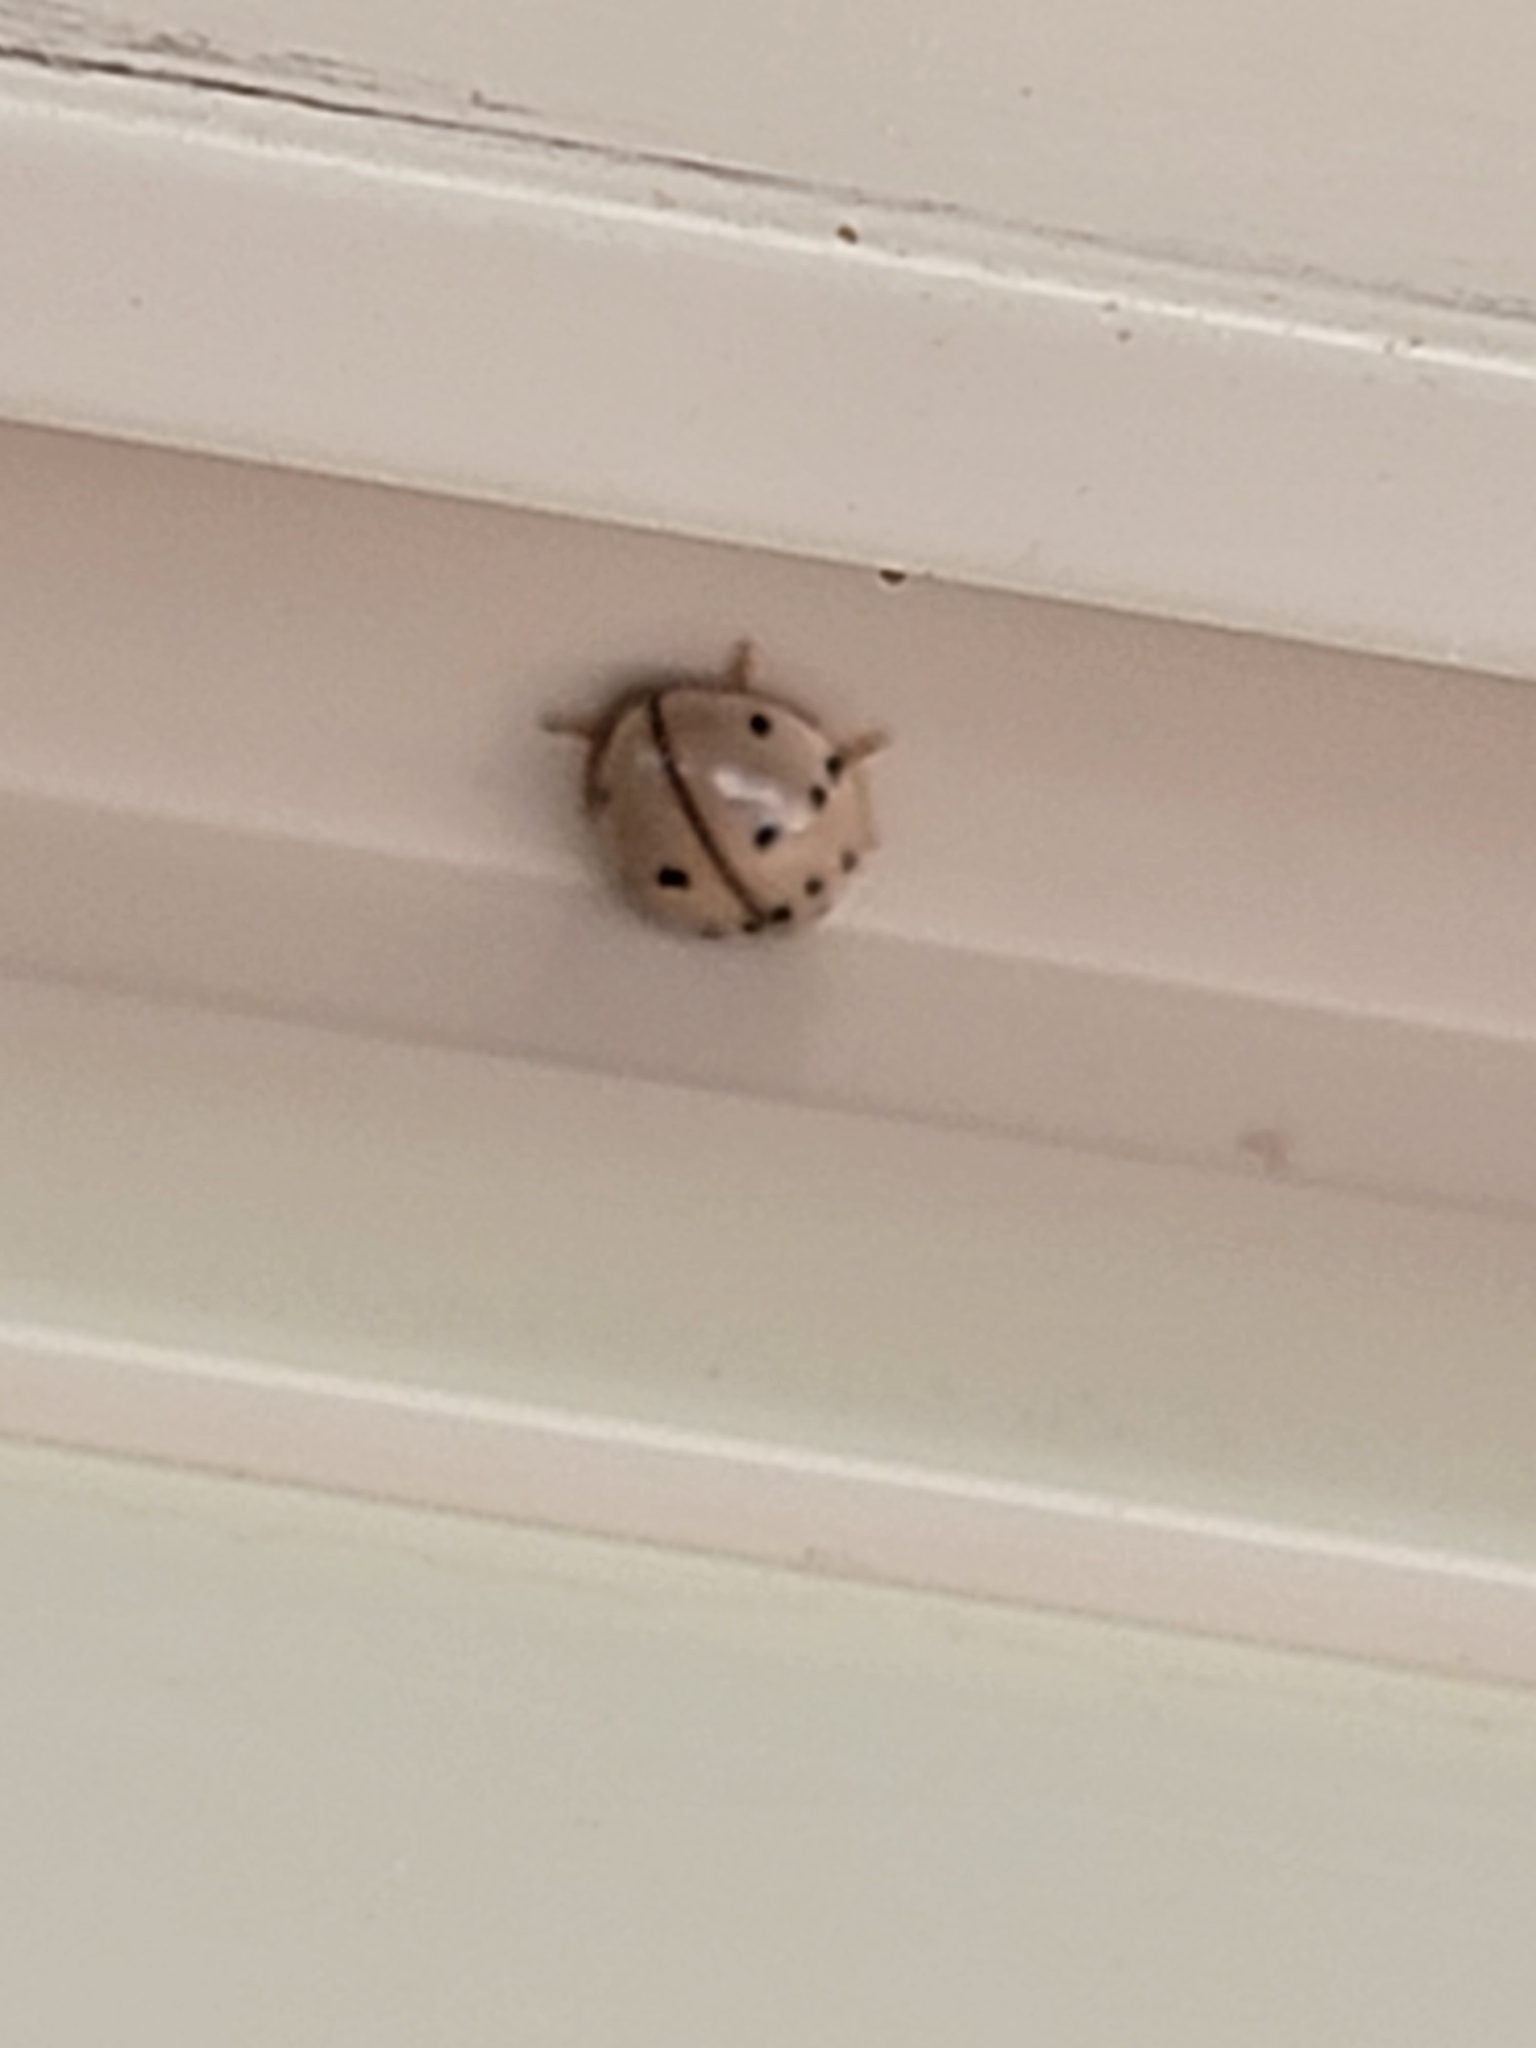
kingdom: Animalia
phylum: Arthropoda
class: Insecta
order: Coleoptera
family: Coccinellidae
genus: Olla
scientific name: Olla v-nigrum
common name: Ashy gray lady beetle
